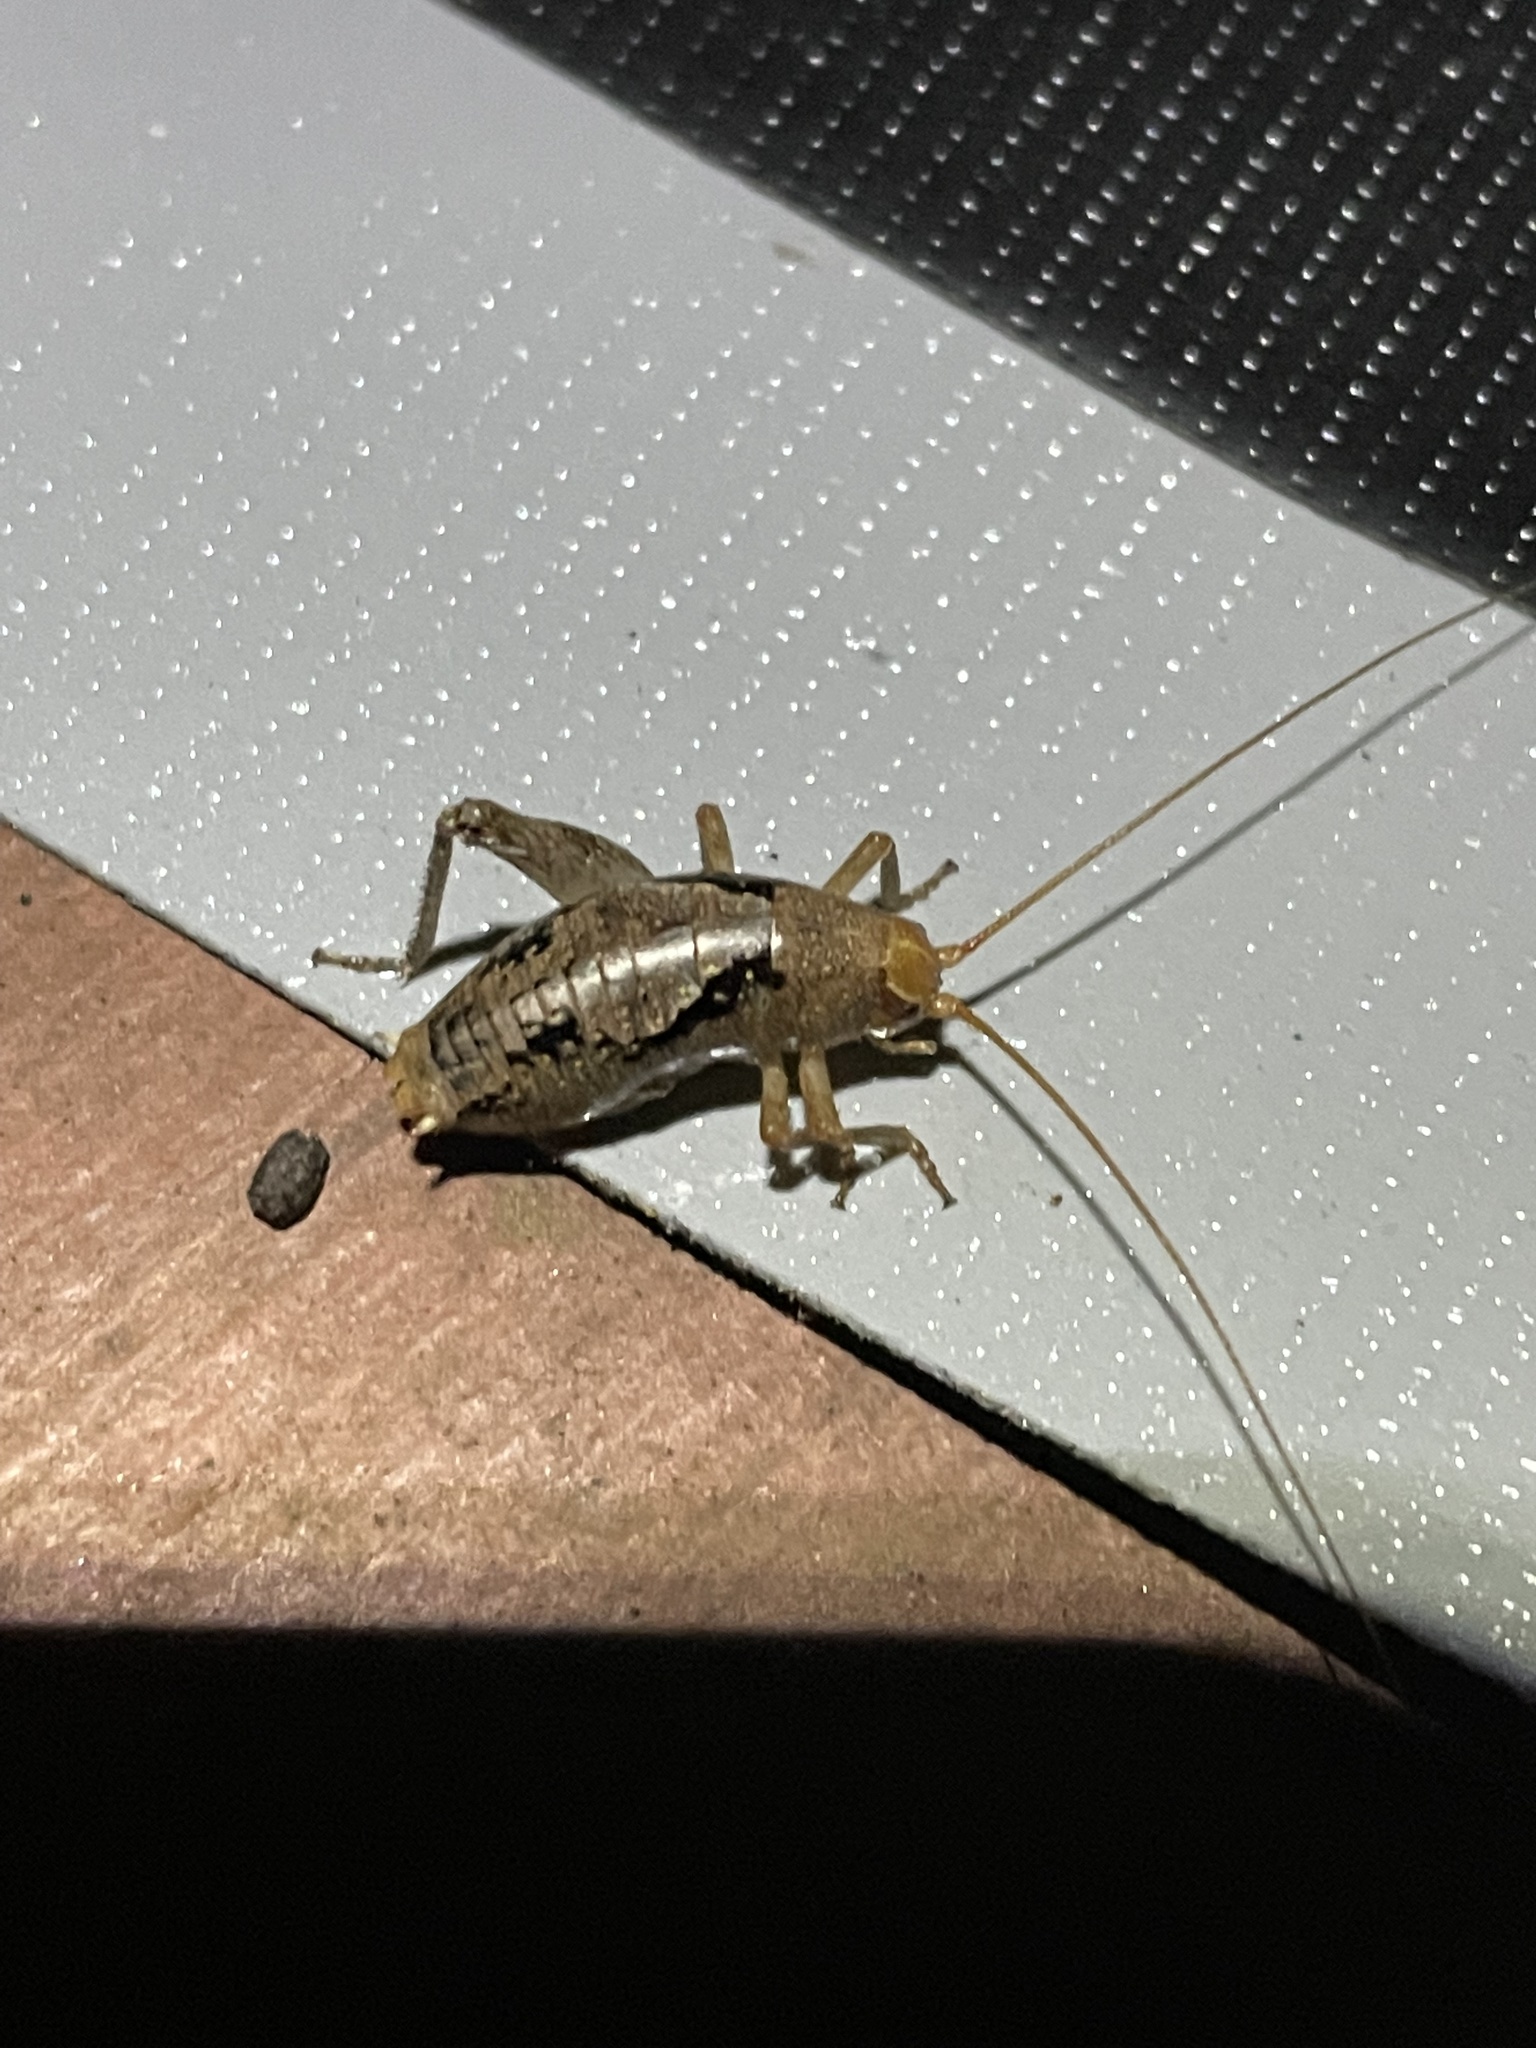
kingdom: Animalia
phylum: Arthropoda
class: Insecta
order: Orthoptera
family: Rhaphidophoridae
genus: Gammarotettix
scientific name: Gammarotettix bilobatus
